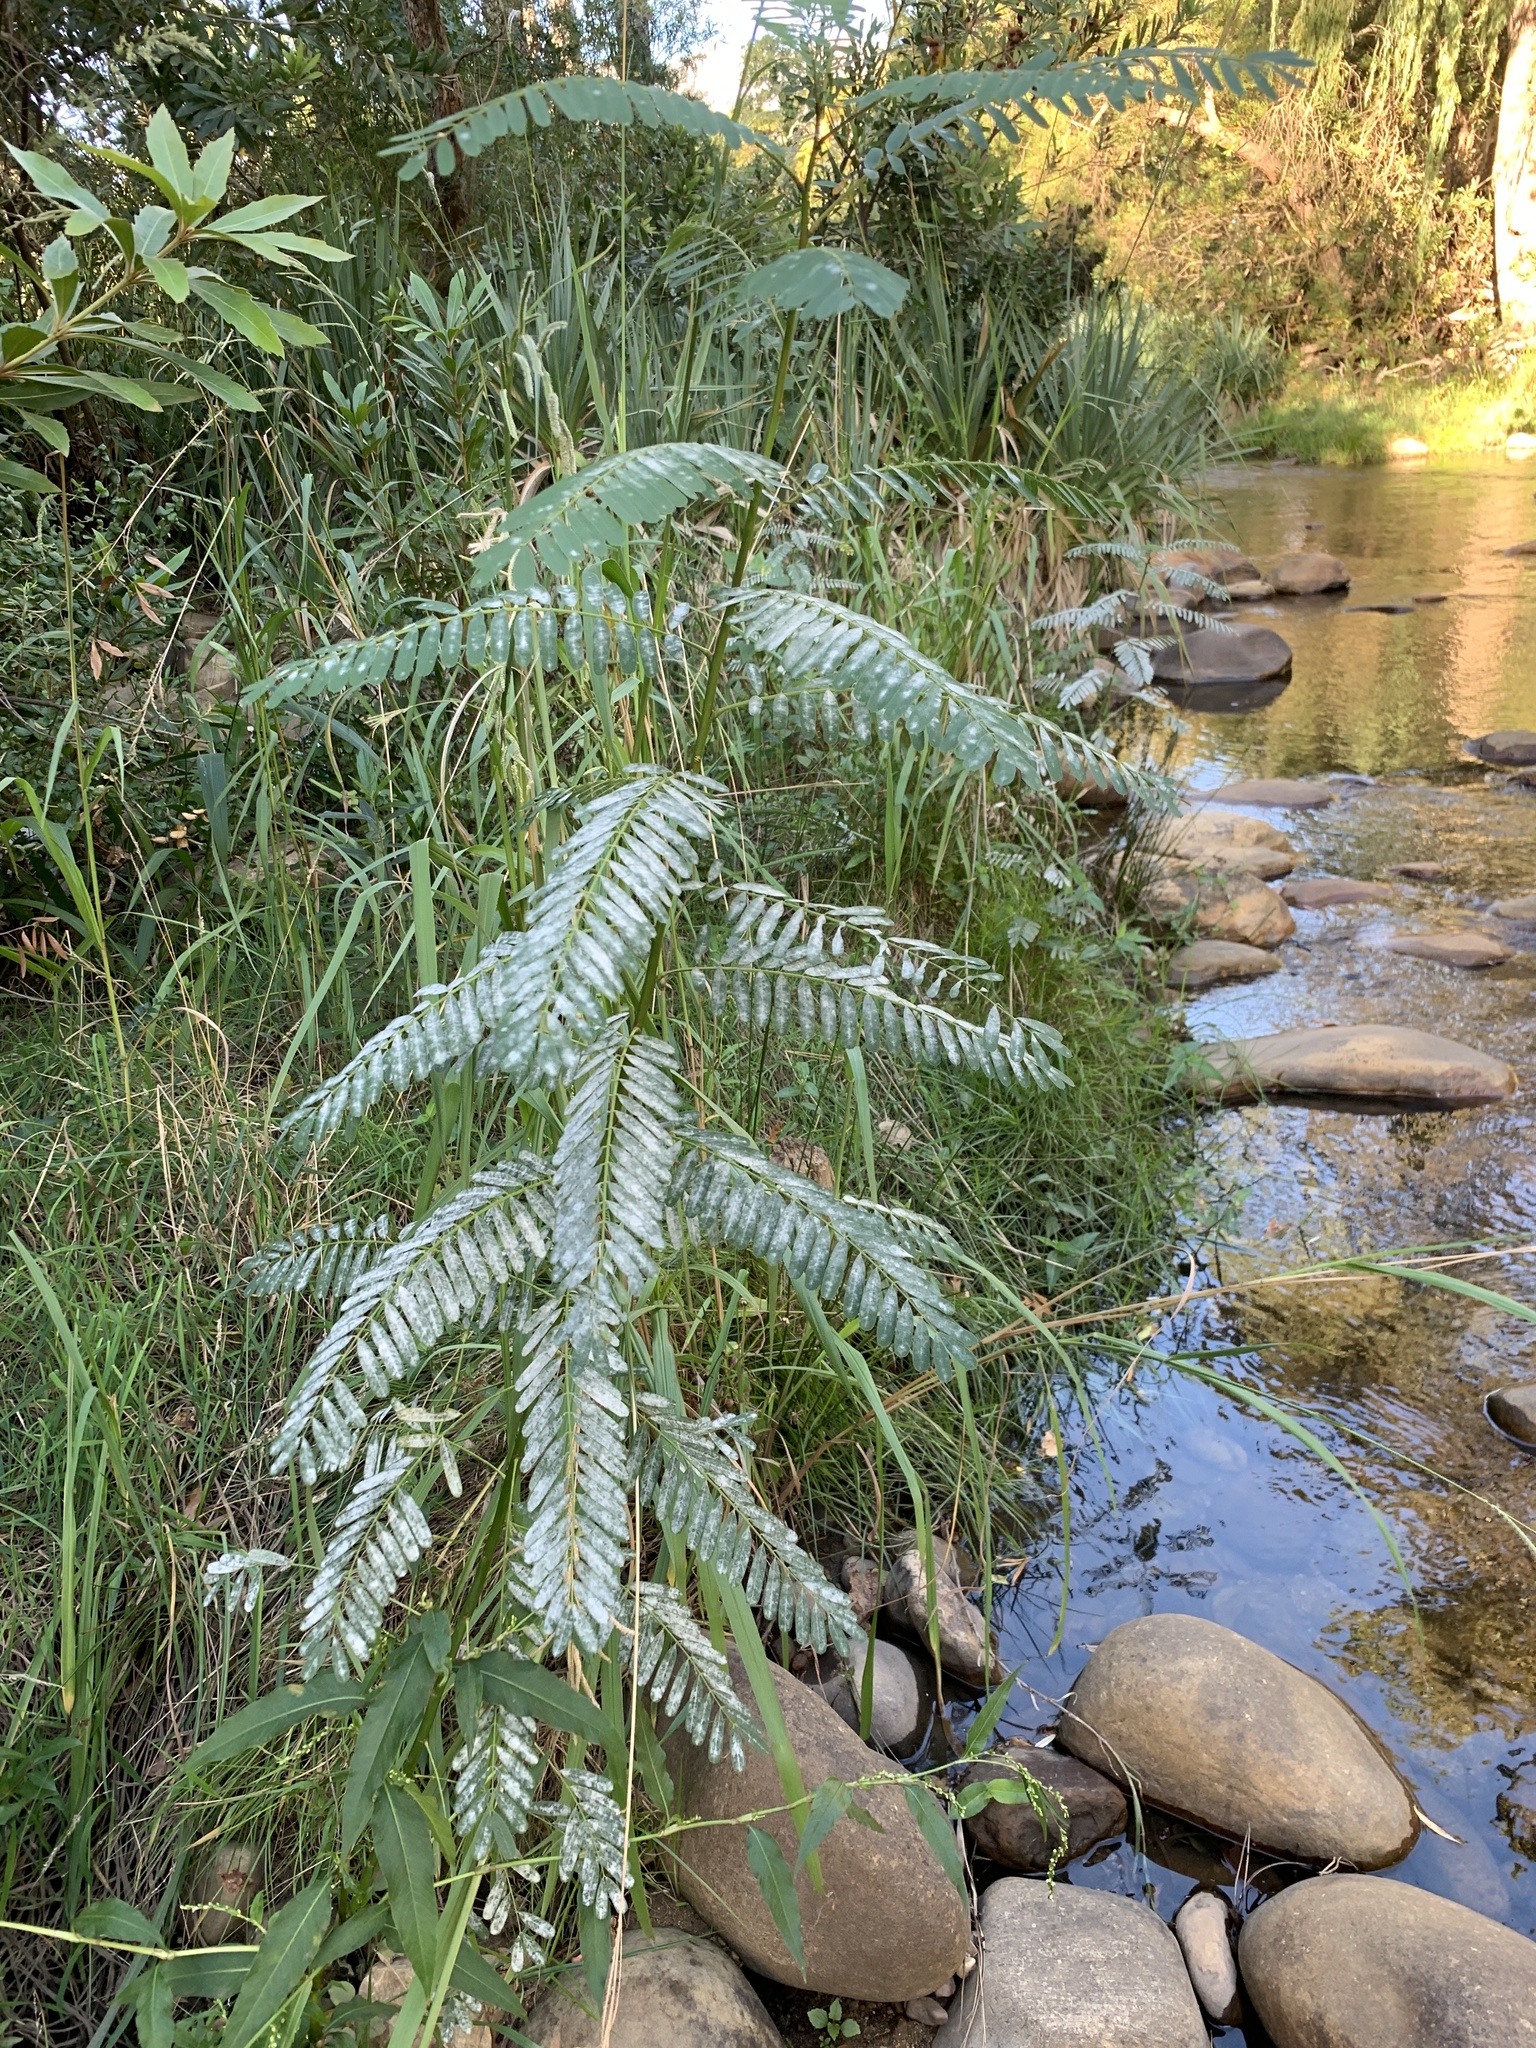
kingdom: Plantae
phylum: Tracheophyta
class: Magnoliopsida
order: Fabales
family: Fabaceae
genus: Sesbania
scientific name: Sesbania punicea
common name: Rattlebox
